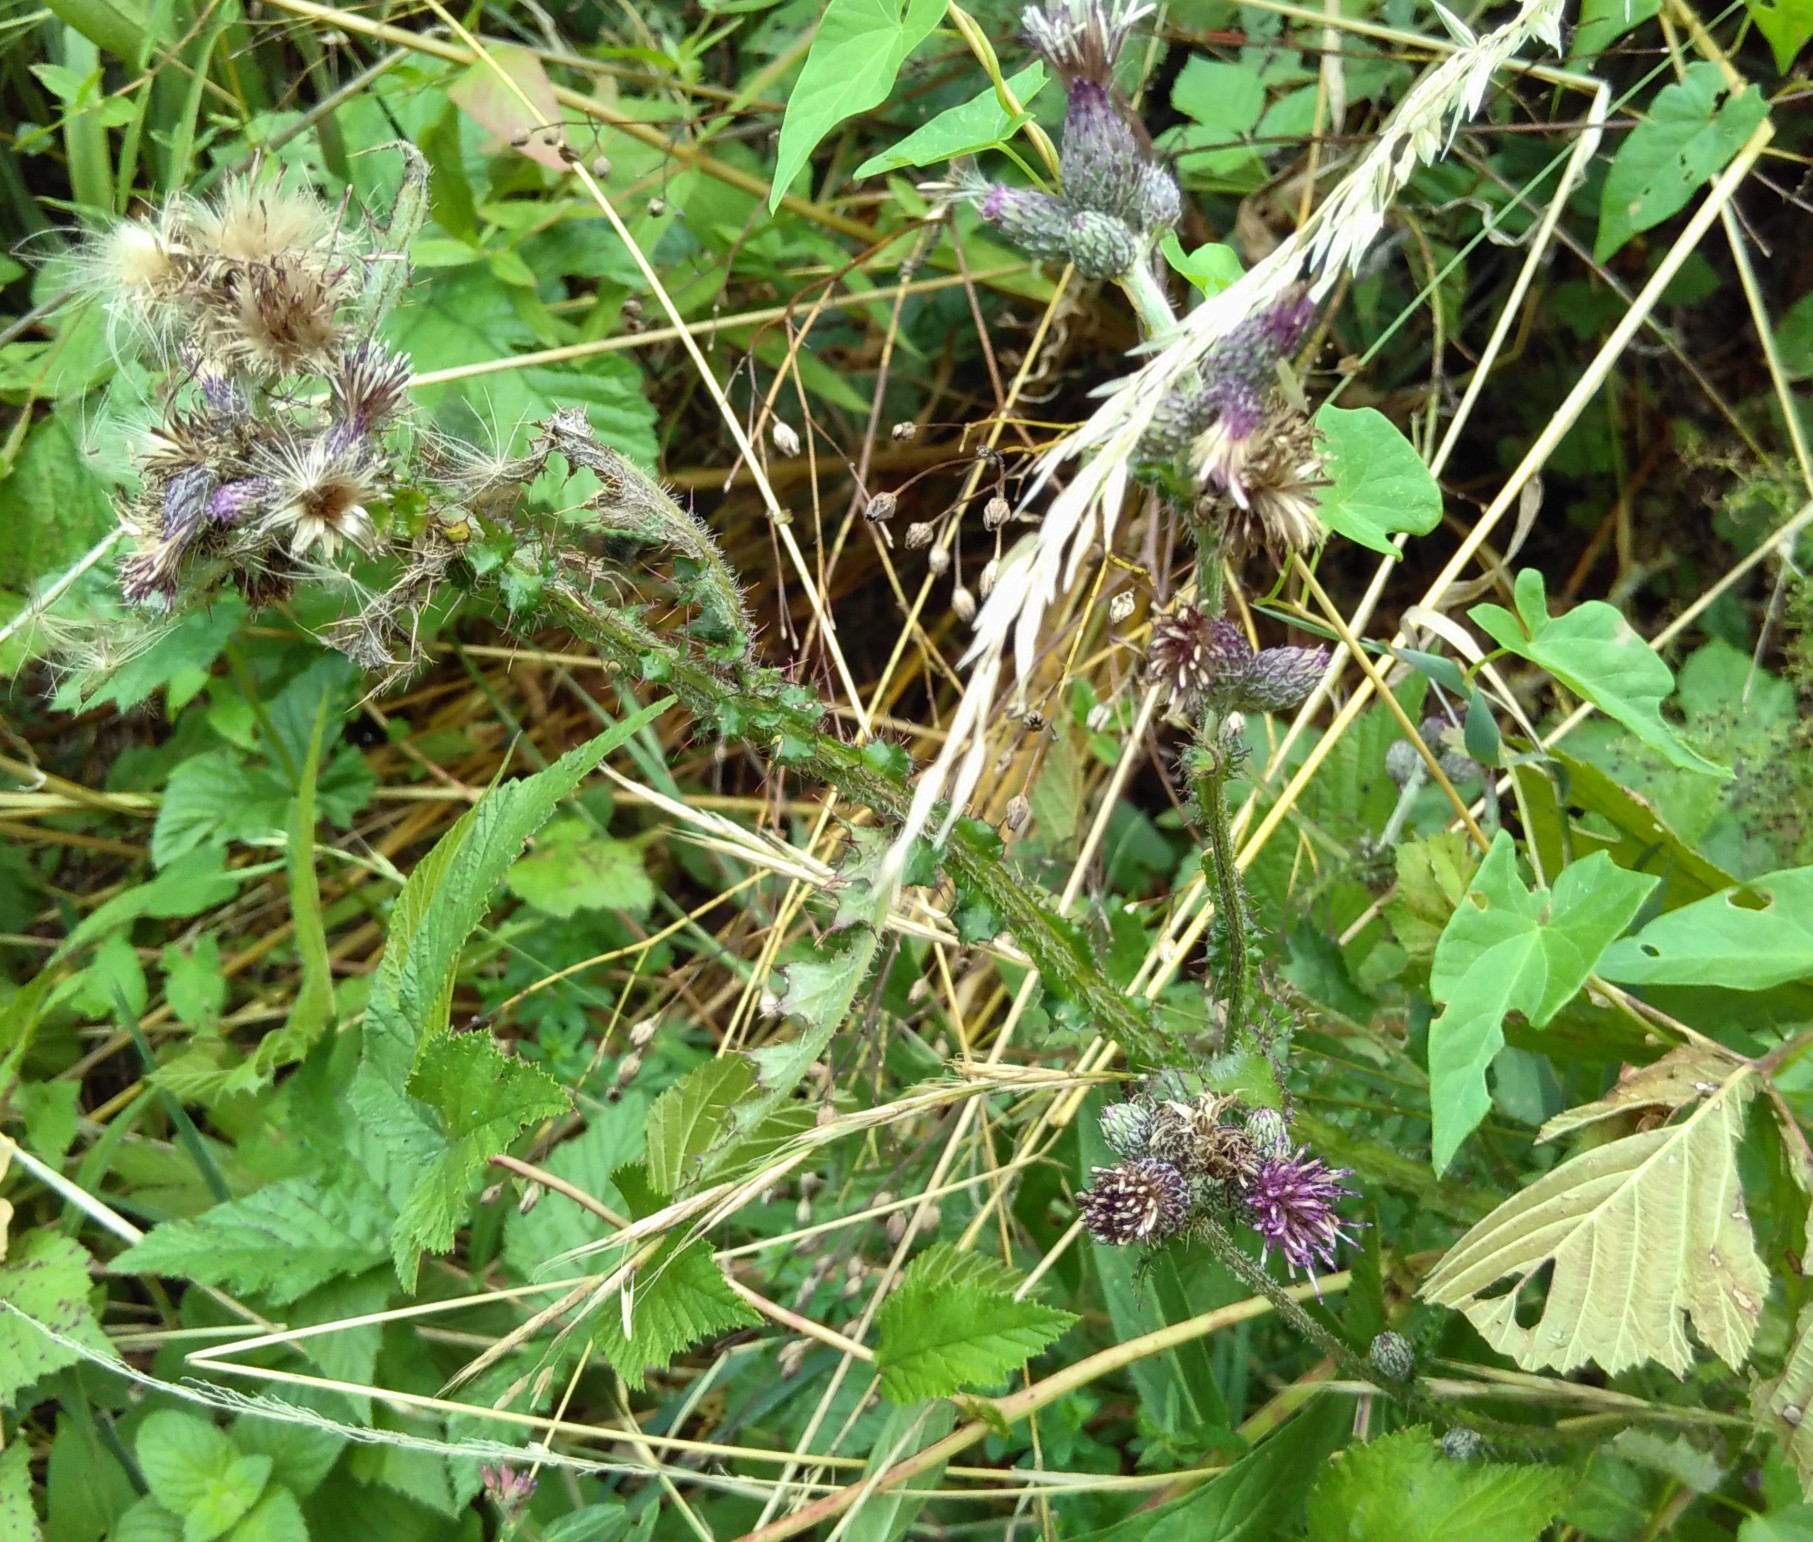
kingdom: Plantae
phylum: Tracheophyta
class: Magnoliopsida
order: Asterales
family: Asteraceae
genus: Cirsium
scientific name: Cirsium palustre
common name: Marsh thistle
